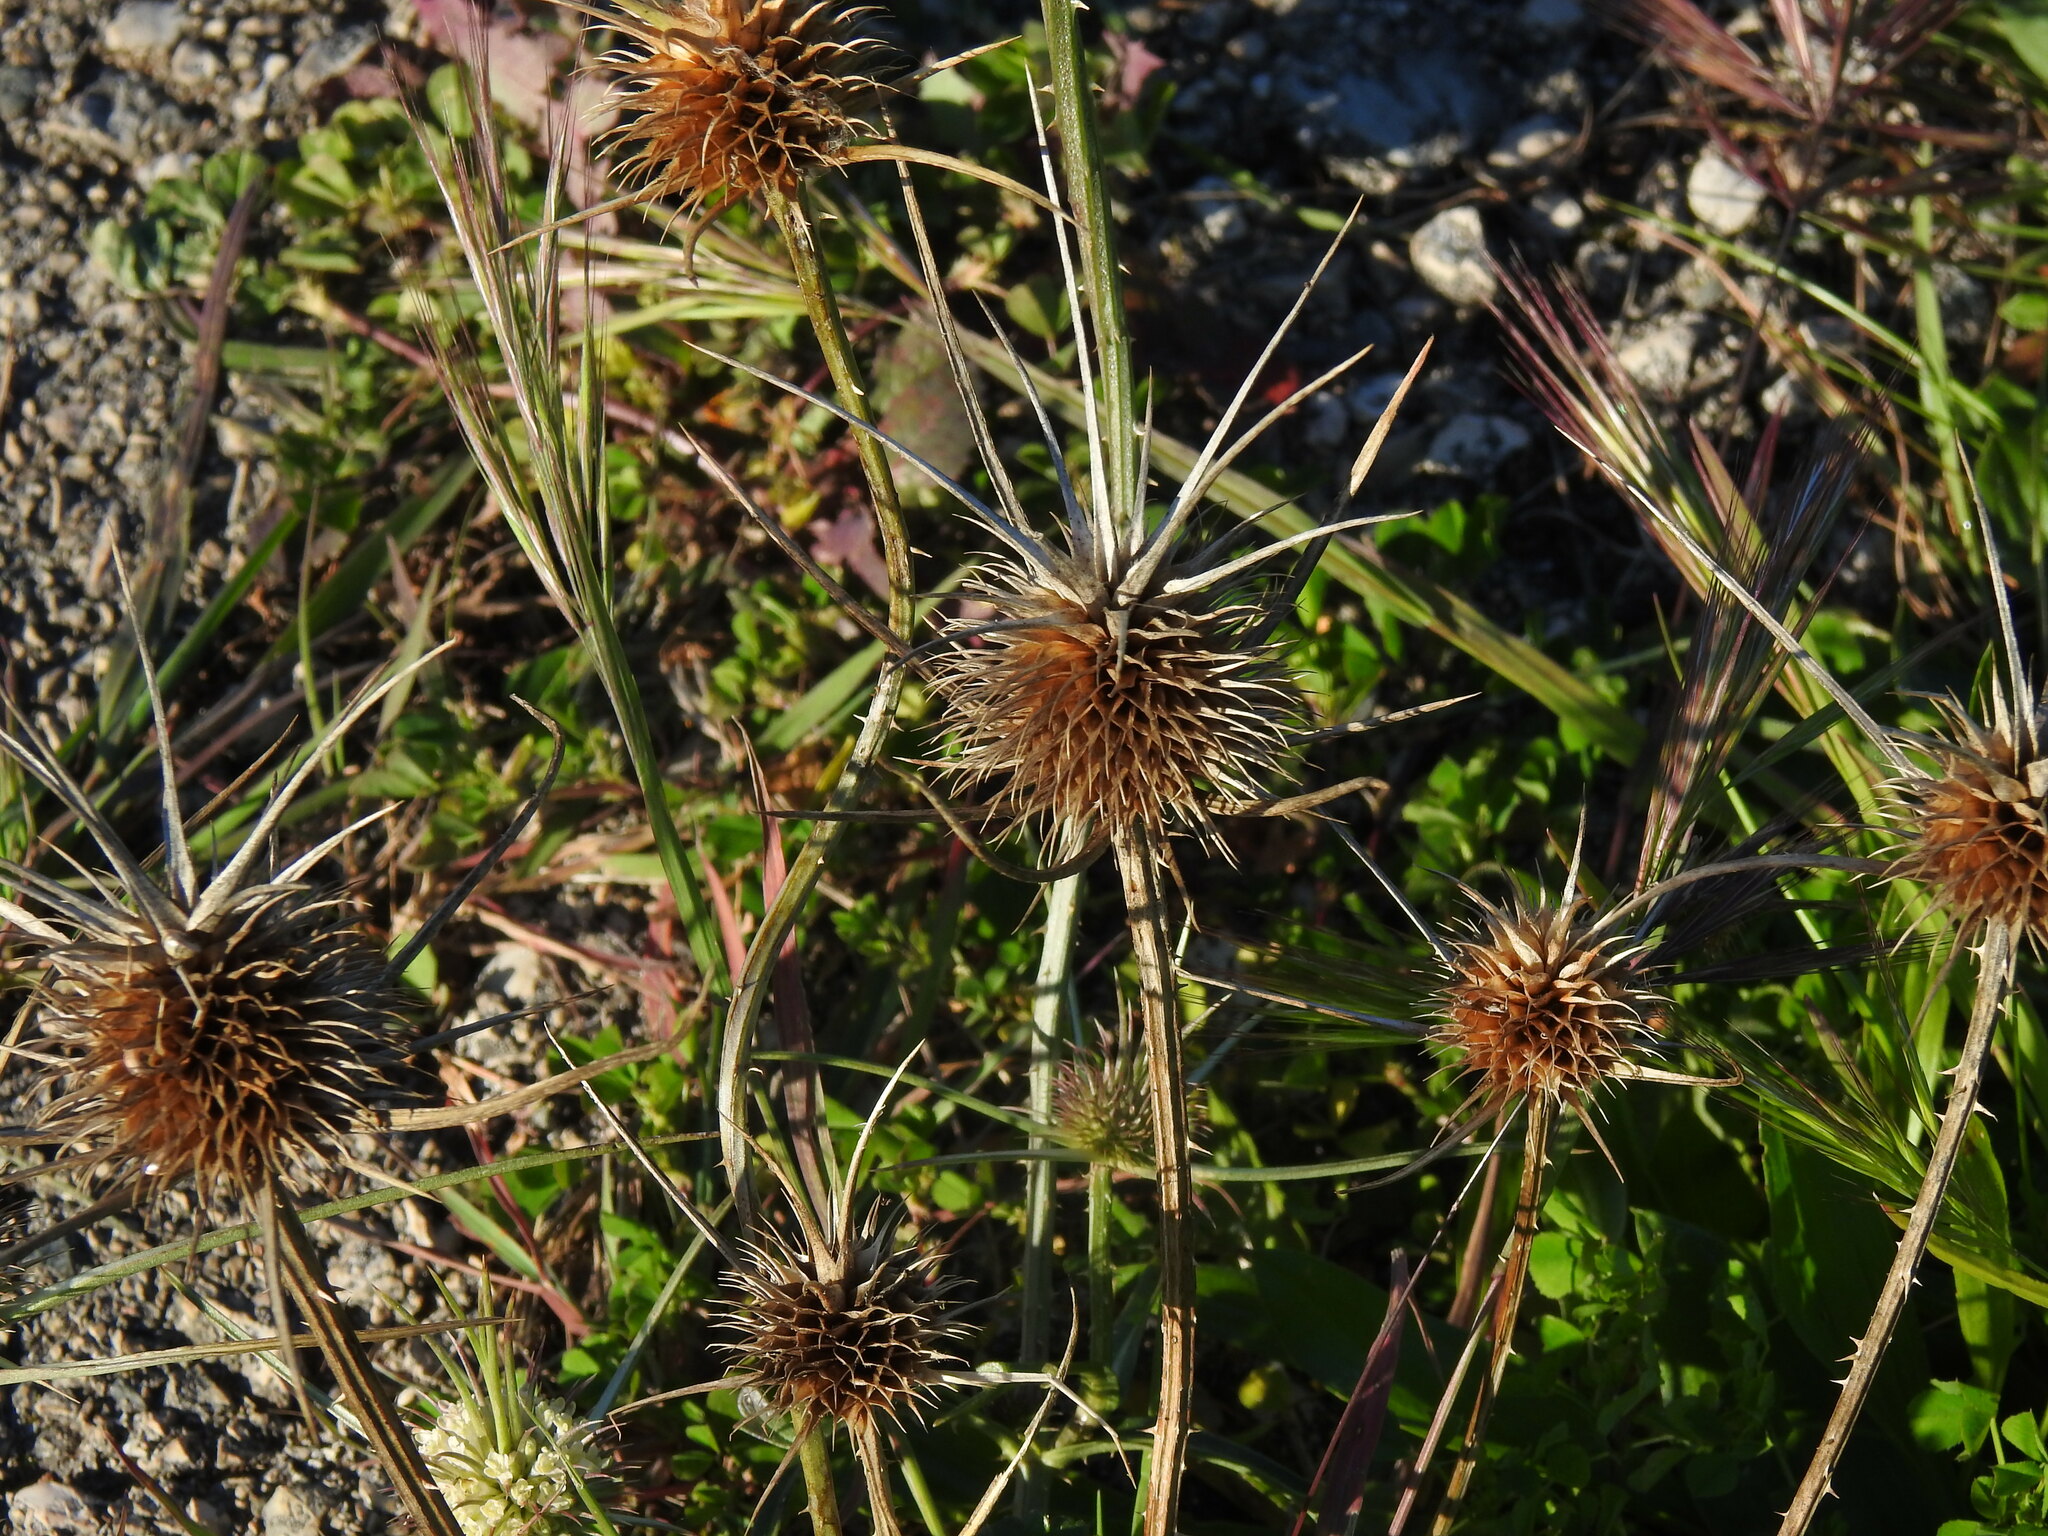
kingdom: Plantae
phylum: Tracheophyta
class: Magnoliopsida
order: Dipsacales
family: Caprifoliaceae
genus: Dipsacus
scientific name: Dipsacus comosus
